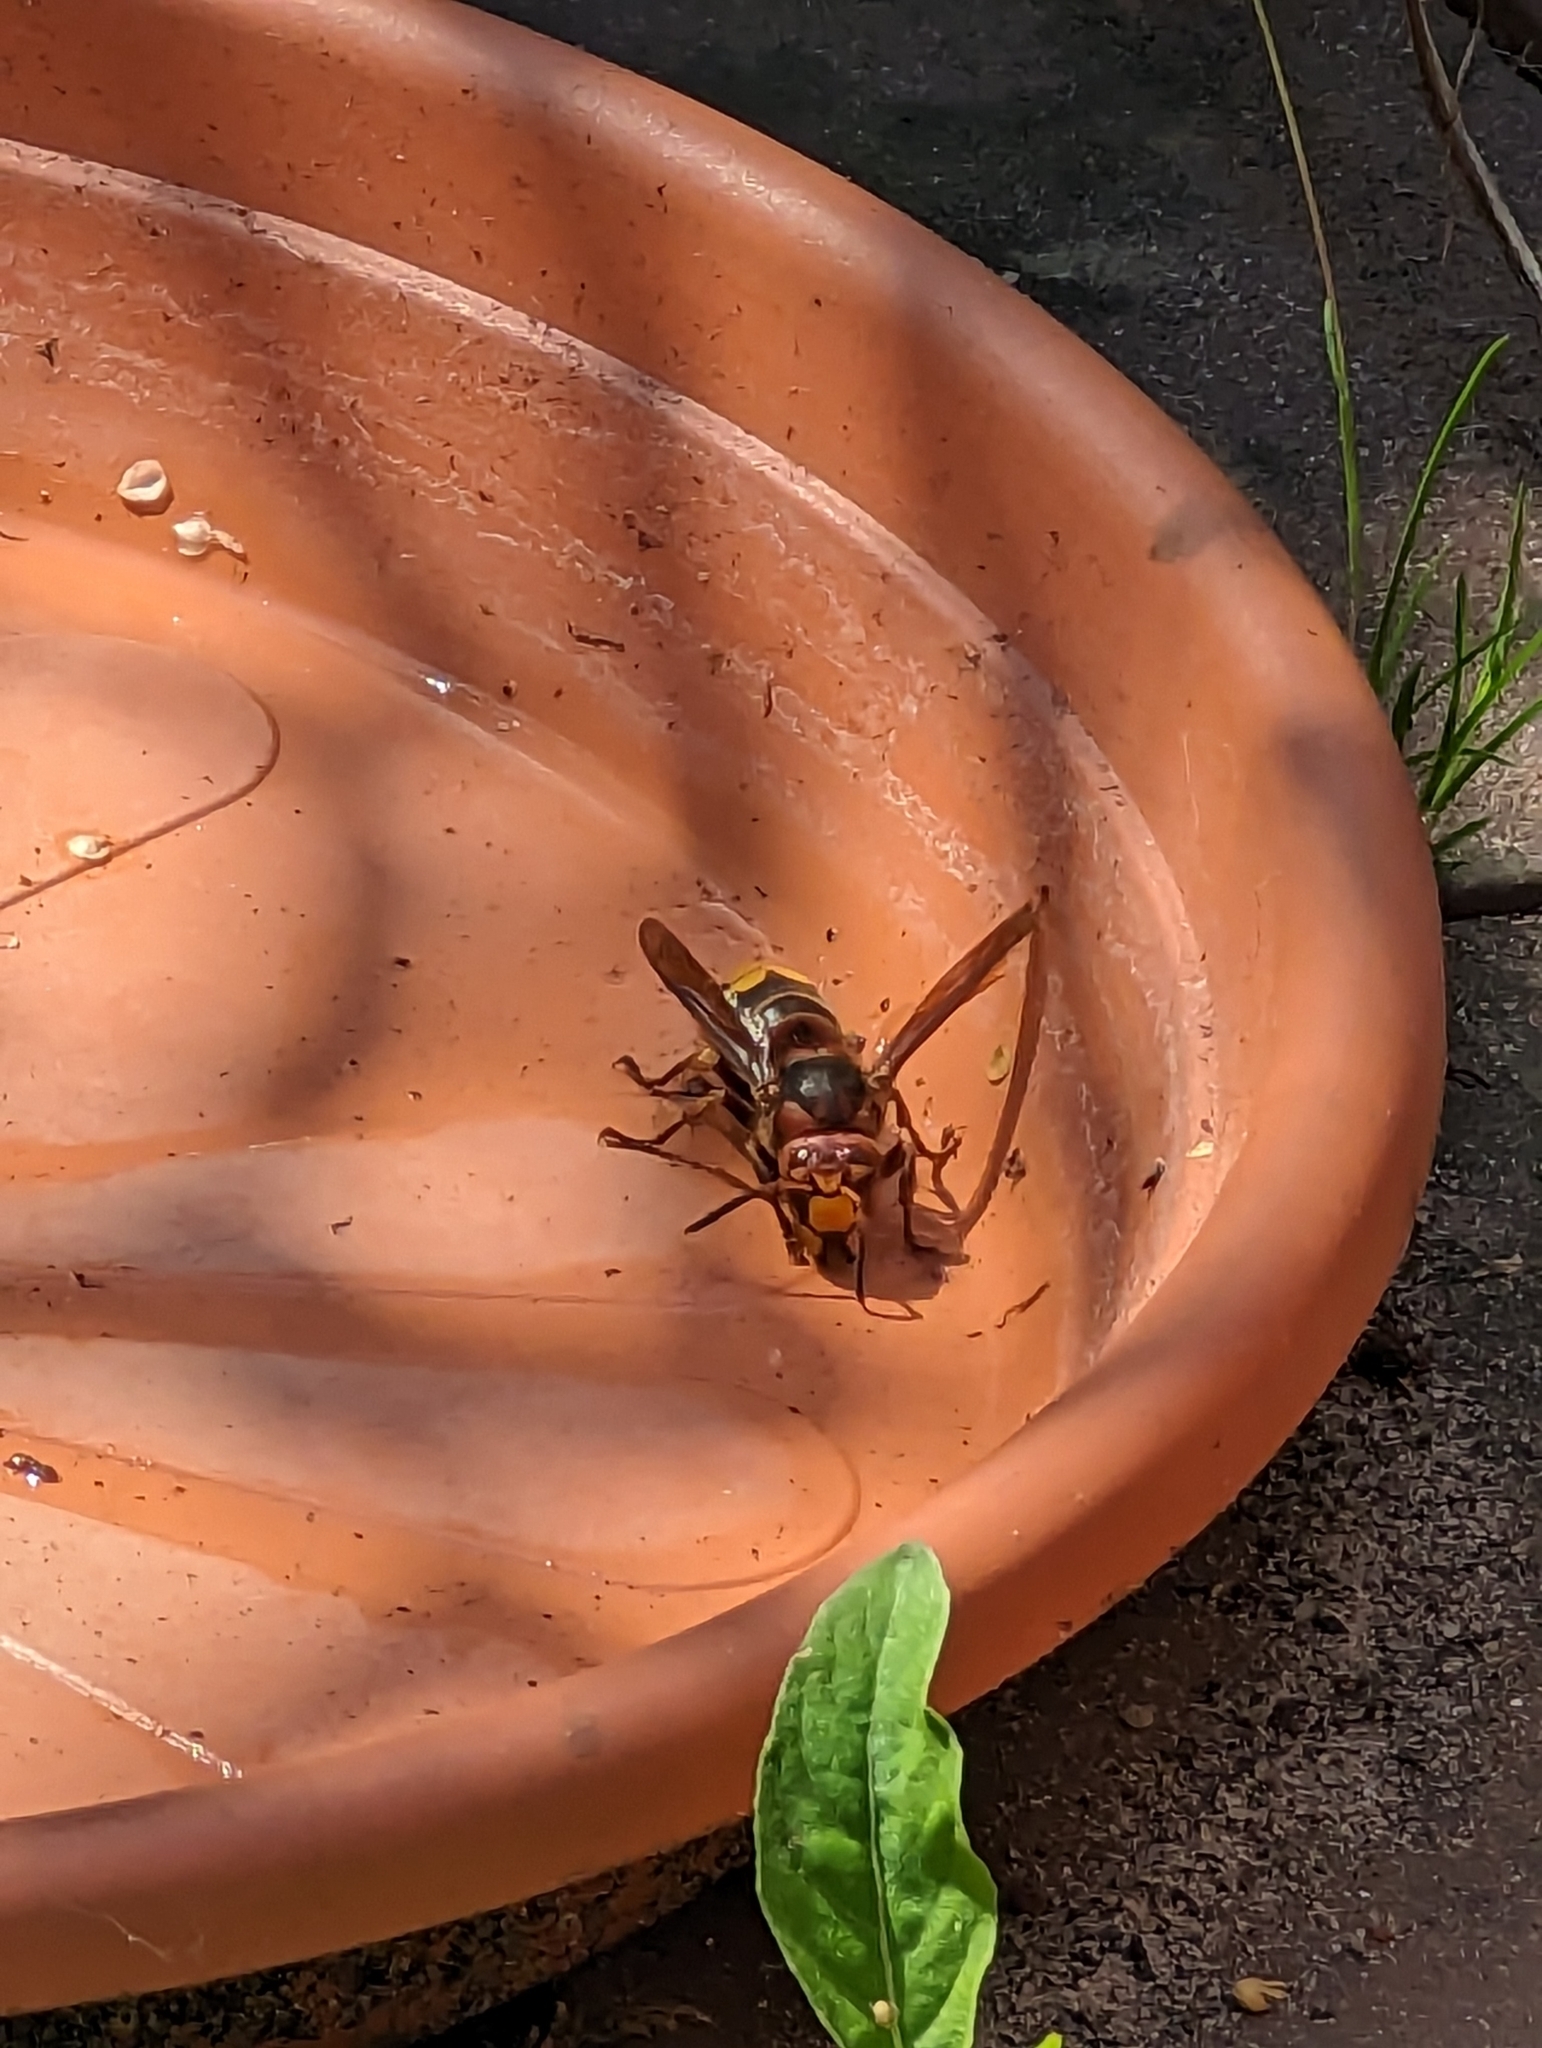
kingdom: Animalia
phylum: Arthropoda
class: Insecta
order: Hymenoptera
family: Vespidae
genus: Vespa
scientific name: Vespa crabro
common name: Hornet
